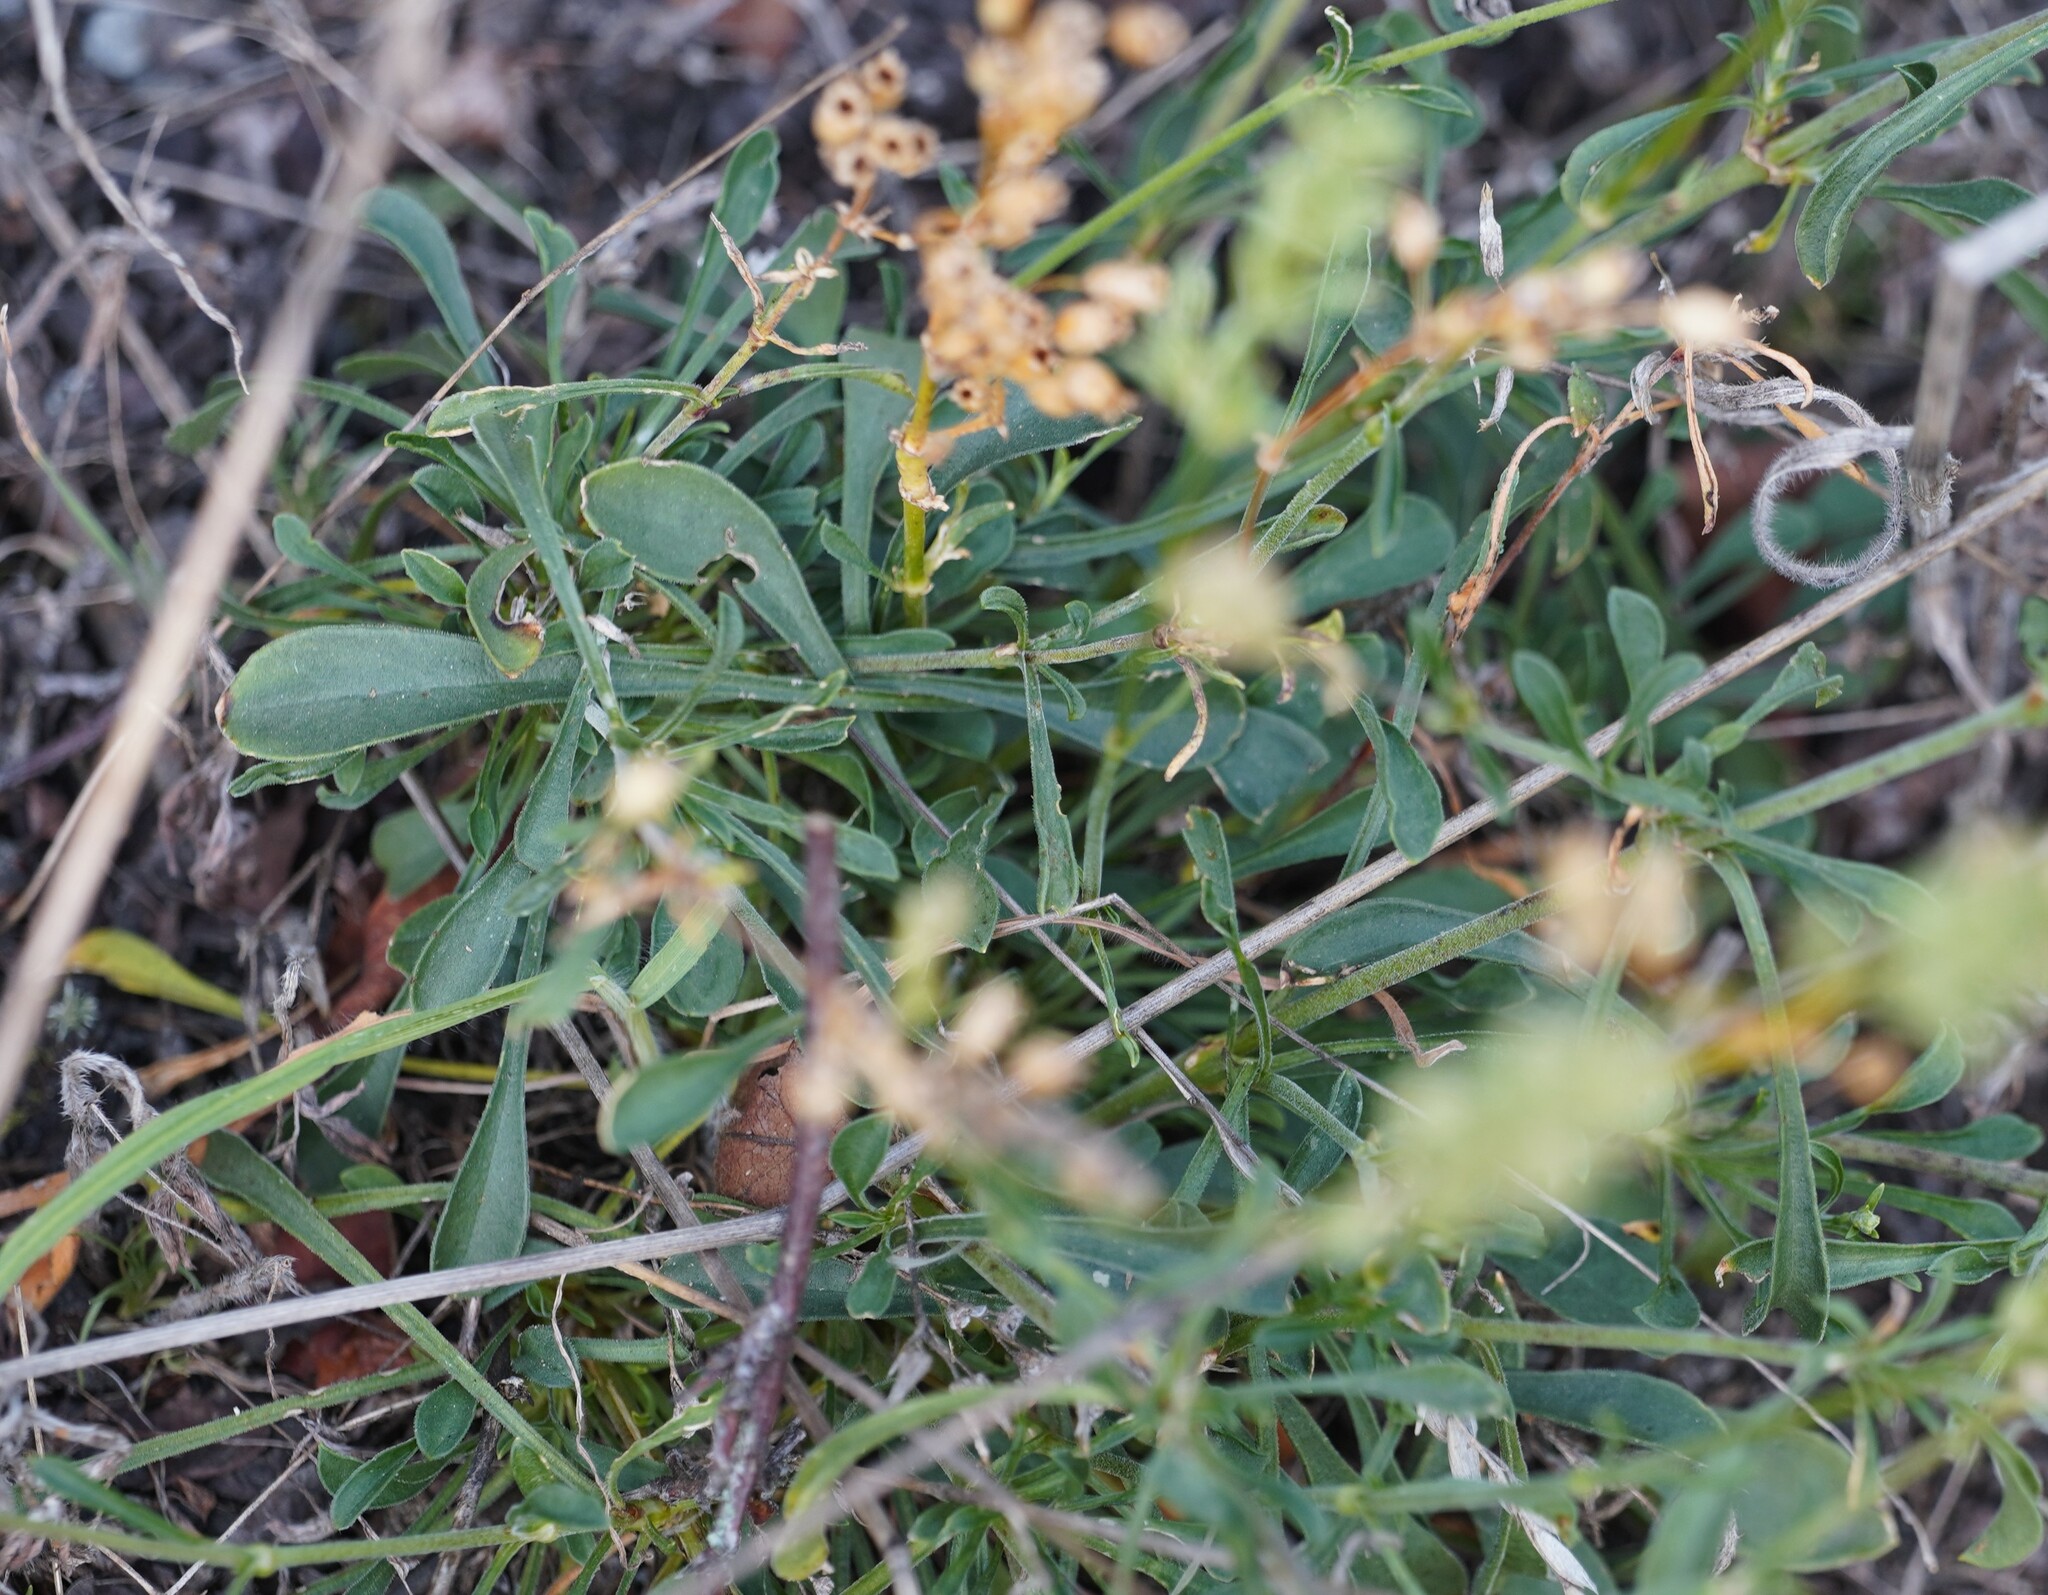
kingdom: Plantae
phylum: Tracheophyta
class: Magnoliopsida
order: Caryophyllales
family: Caryophyllaceae
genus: Silene
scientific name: Silene otites
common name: Spanish catchfly
